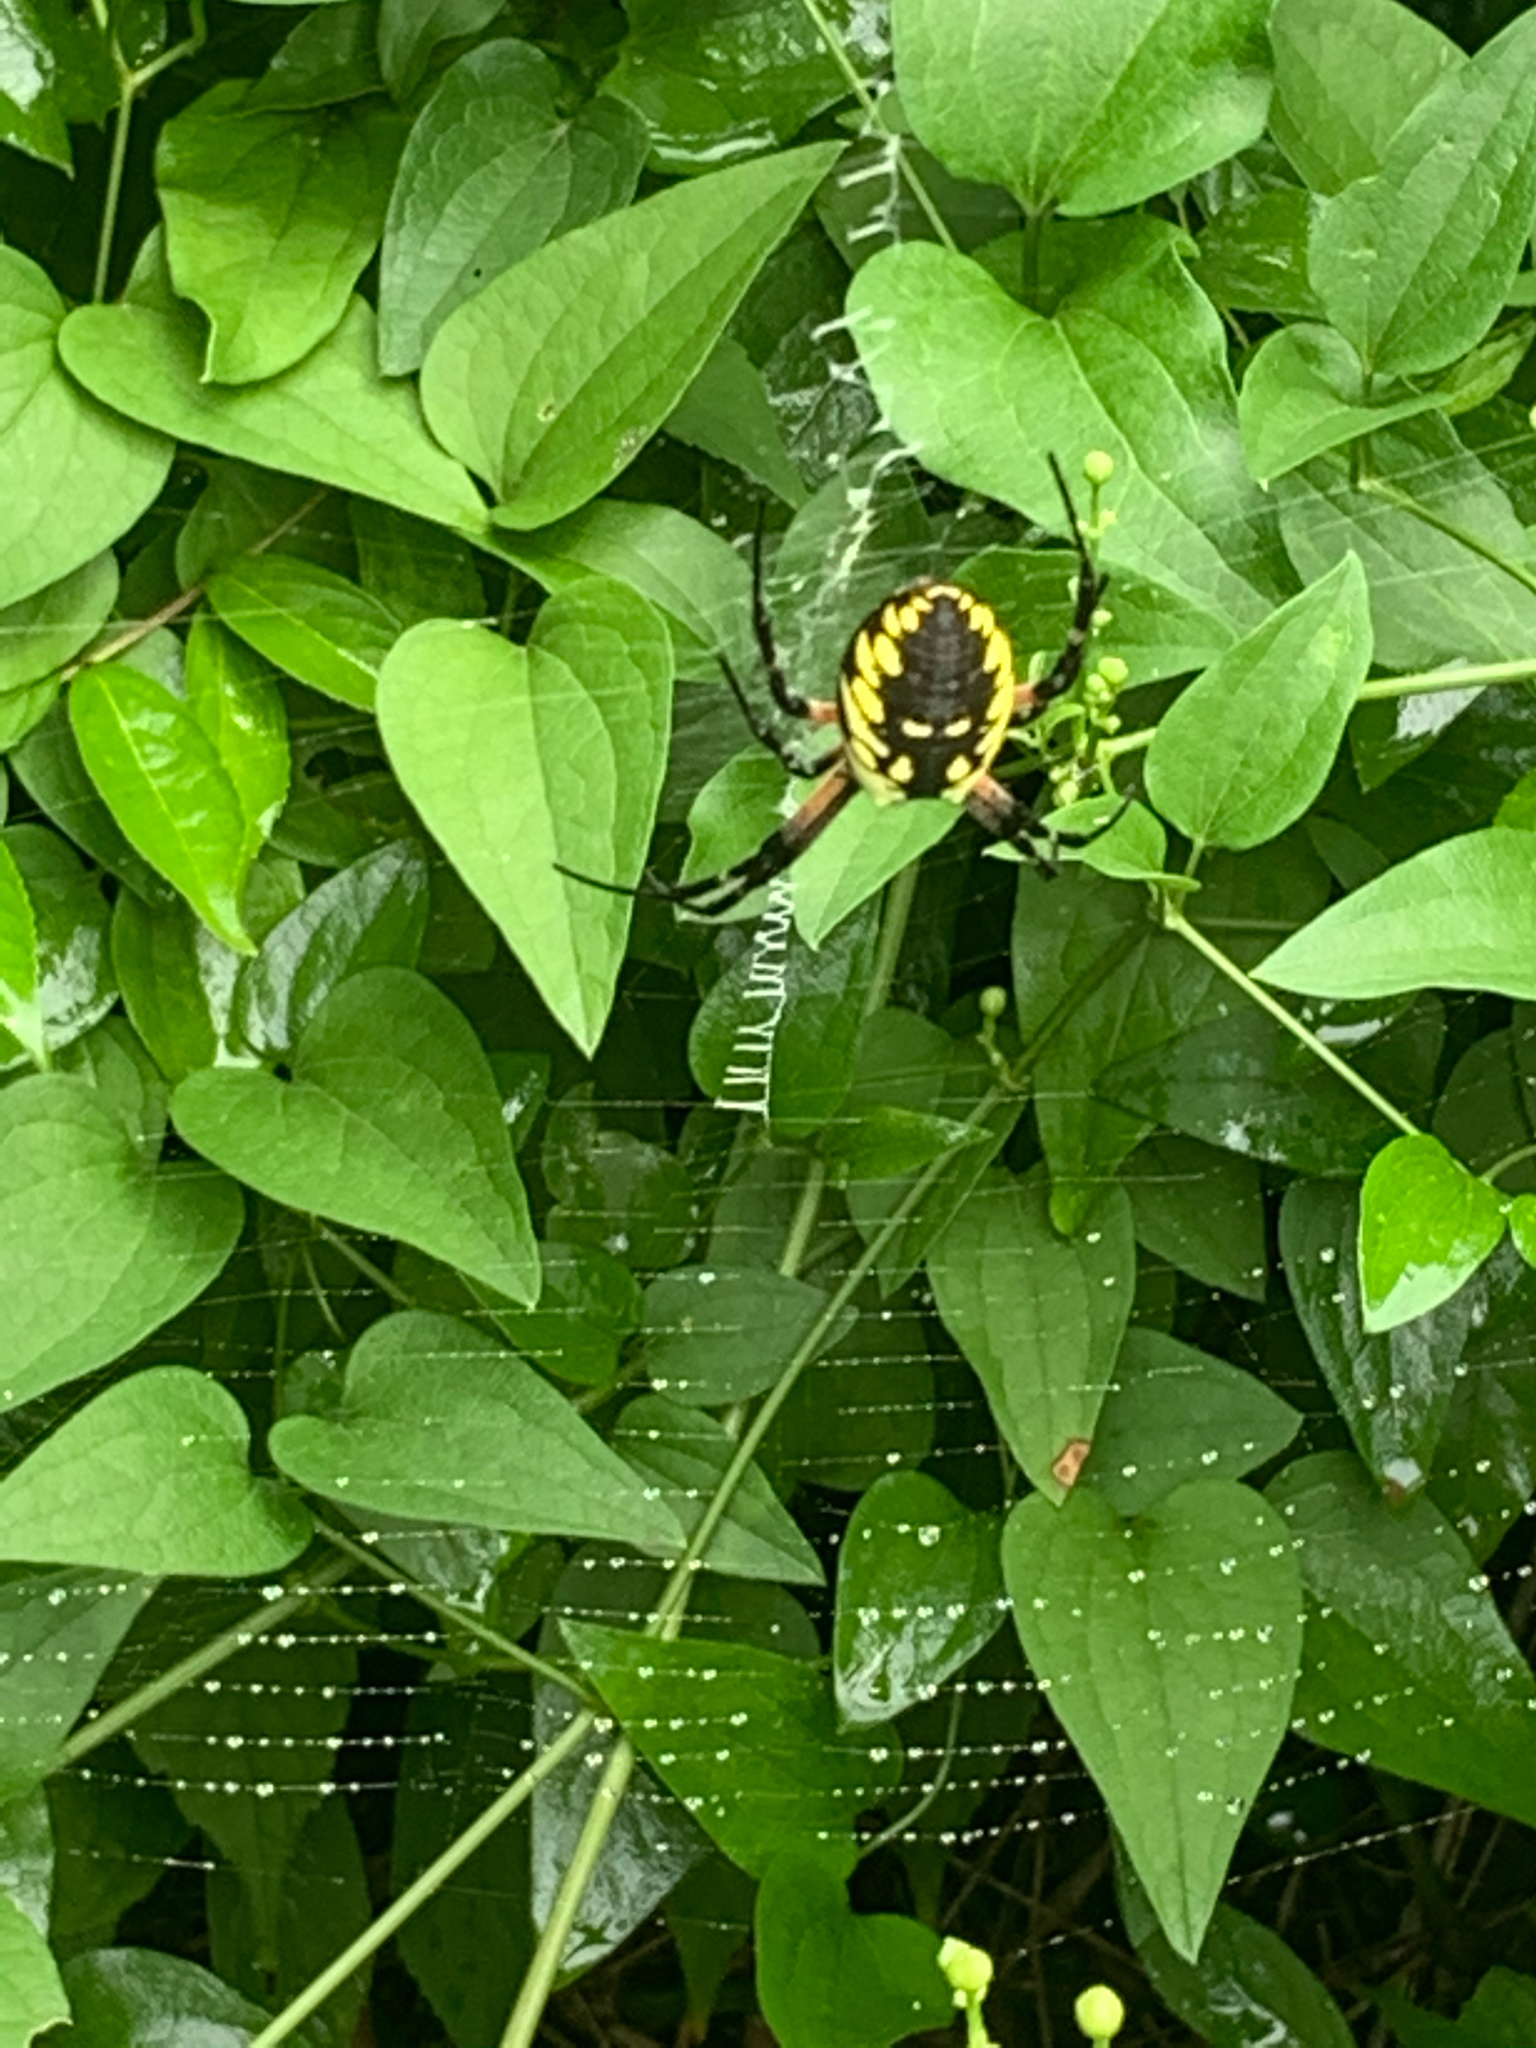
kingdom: Animalia
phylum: Arthropoda
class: Arachnida
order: Araneae
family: Araneidae
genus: Argiope
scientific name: Argiope aurantia
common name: Orb weavers
